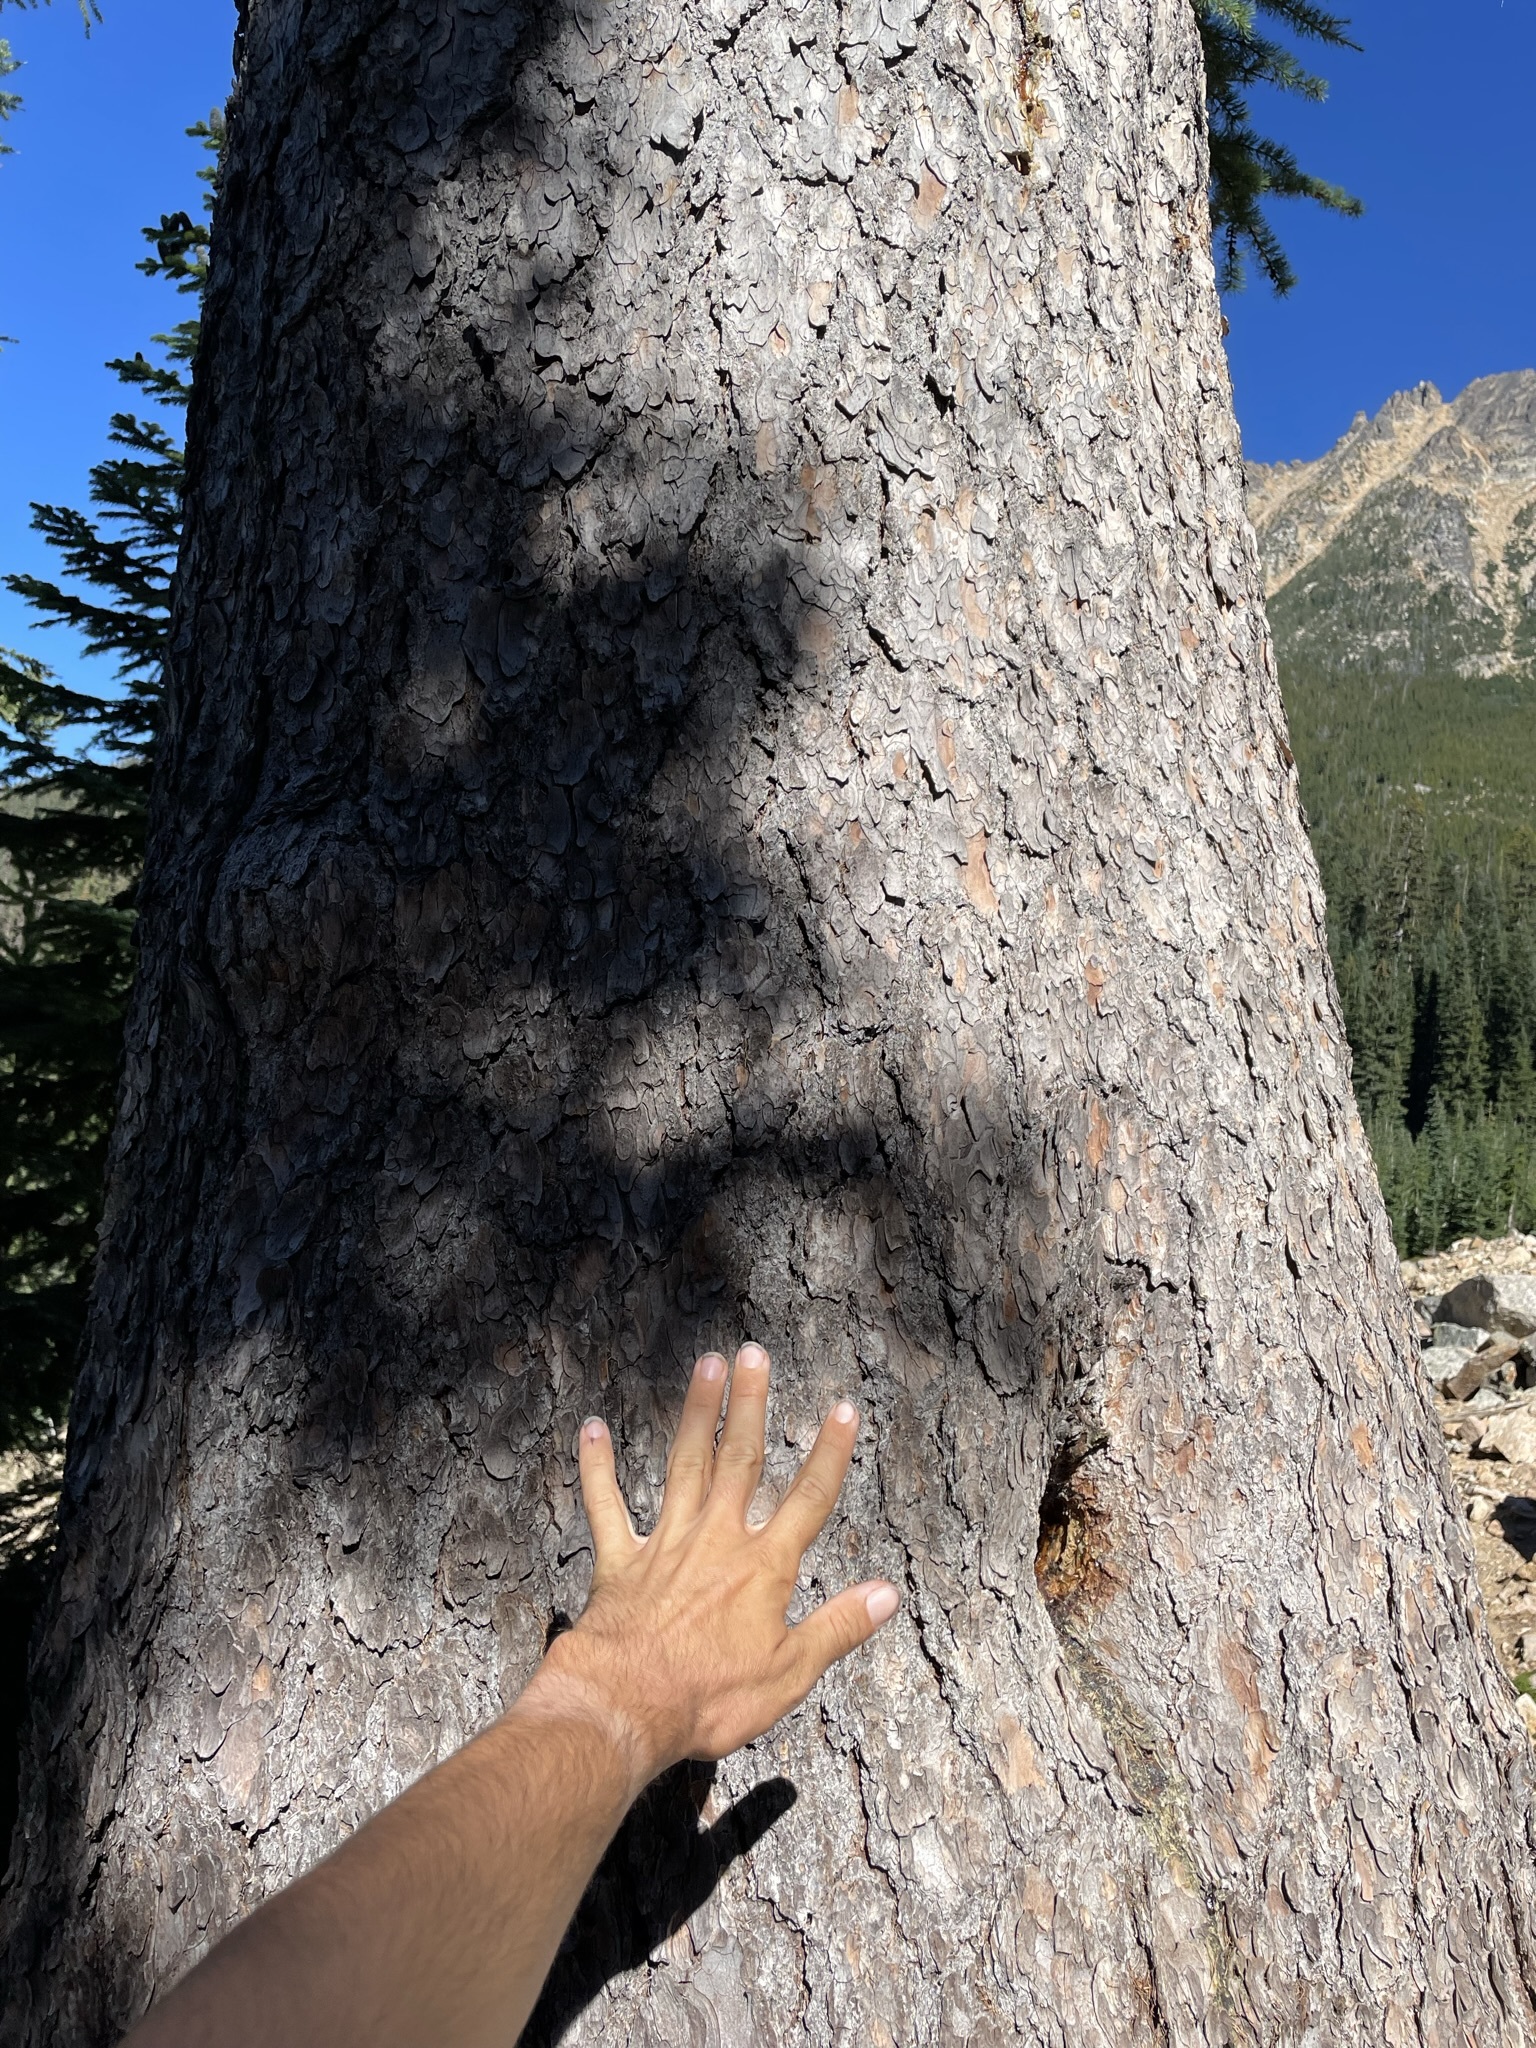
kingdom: Plantae
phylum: Tracheophyta
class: Pinopsida
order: Pinales
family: Pinaceae
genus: Larix
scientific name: Larix lyallii
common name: Alpine larch
